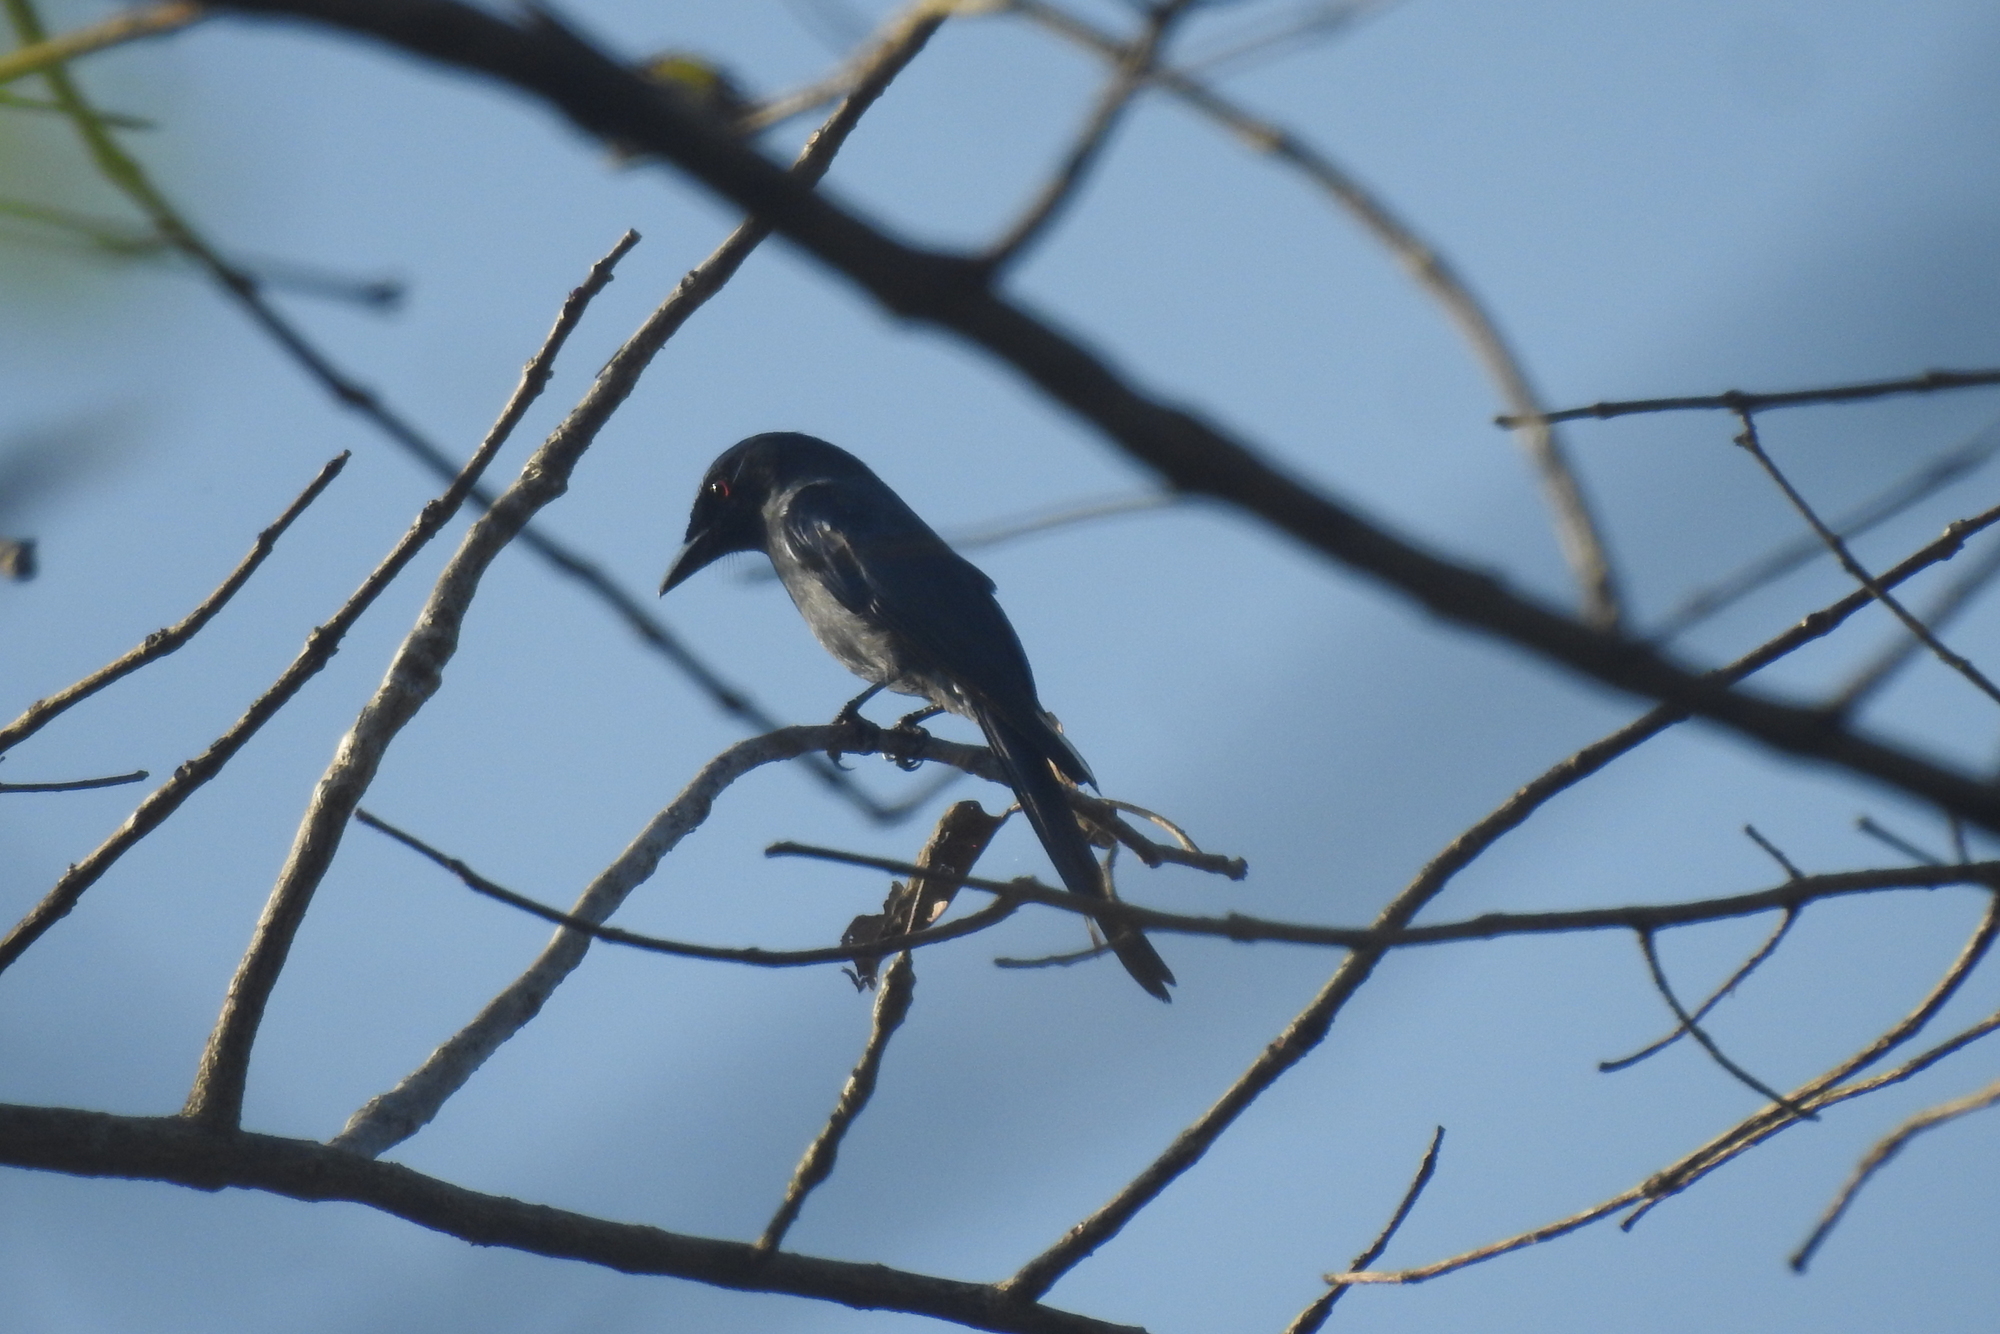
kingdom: Animalia
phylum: Chordata
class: Aves
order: Passeriformes
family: Dicruridae
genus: Dicrurus
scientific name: Dicrurus leucophaeus
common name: Ashy drongo
